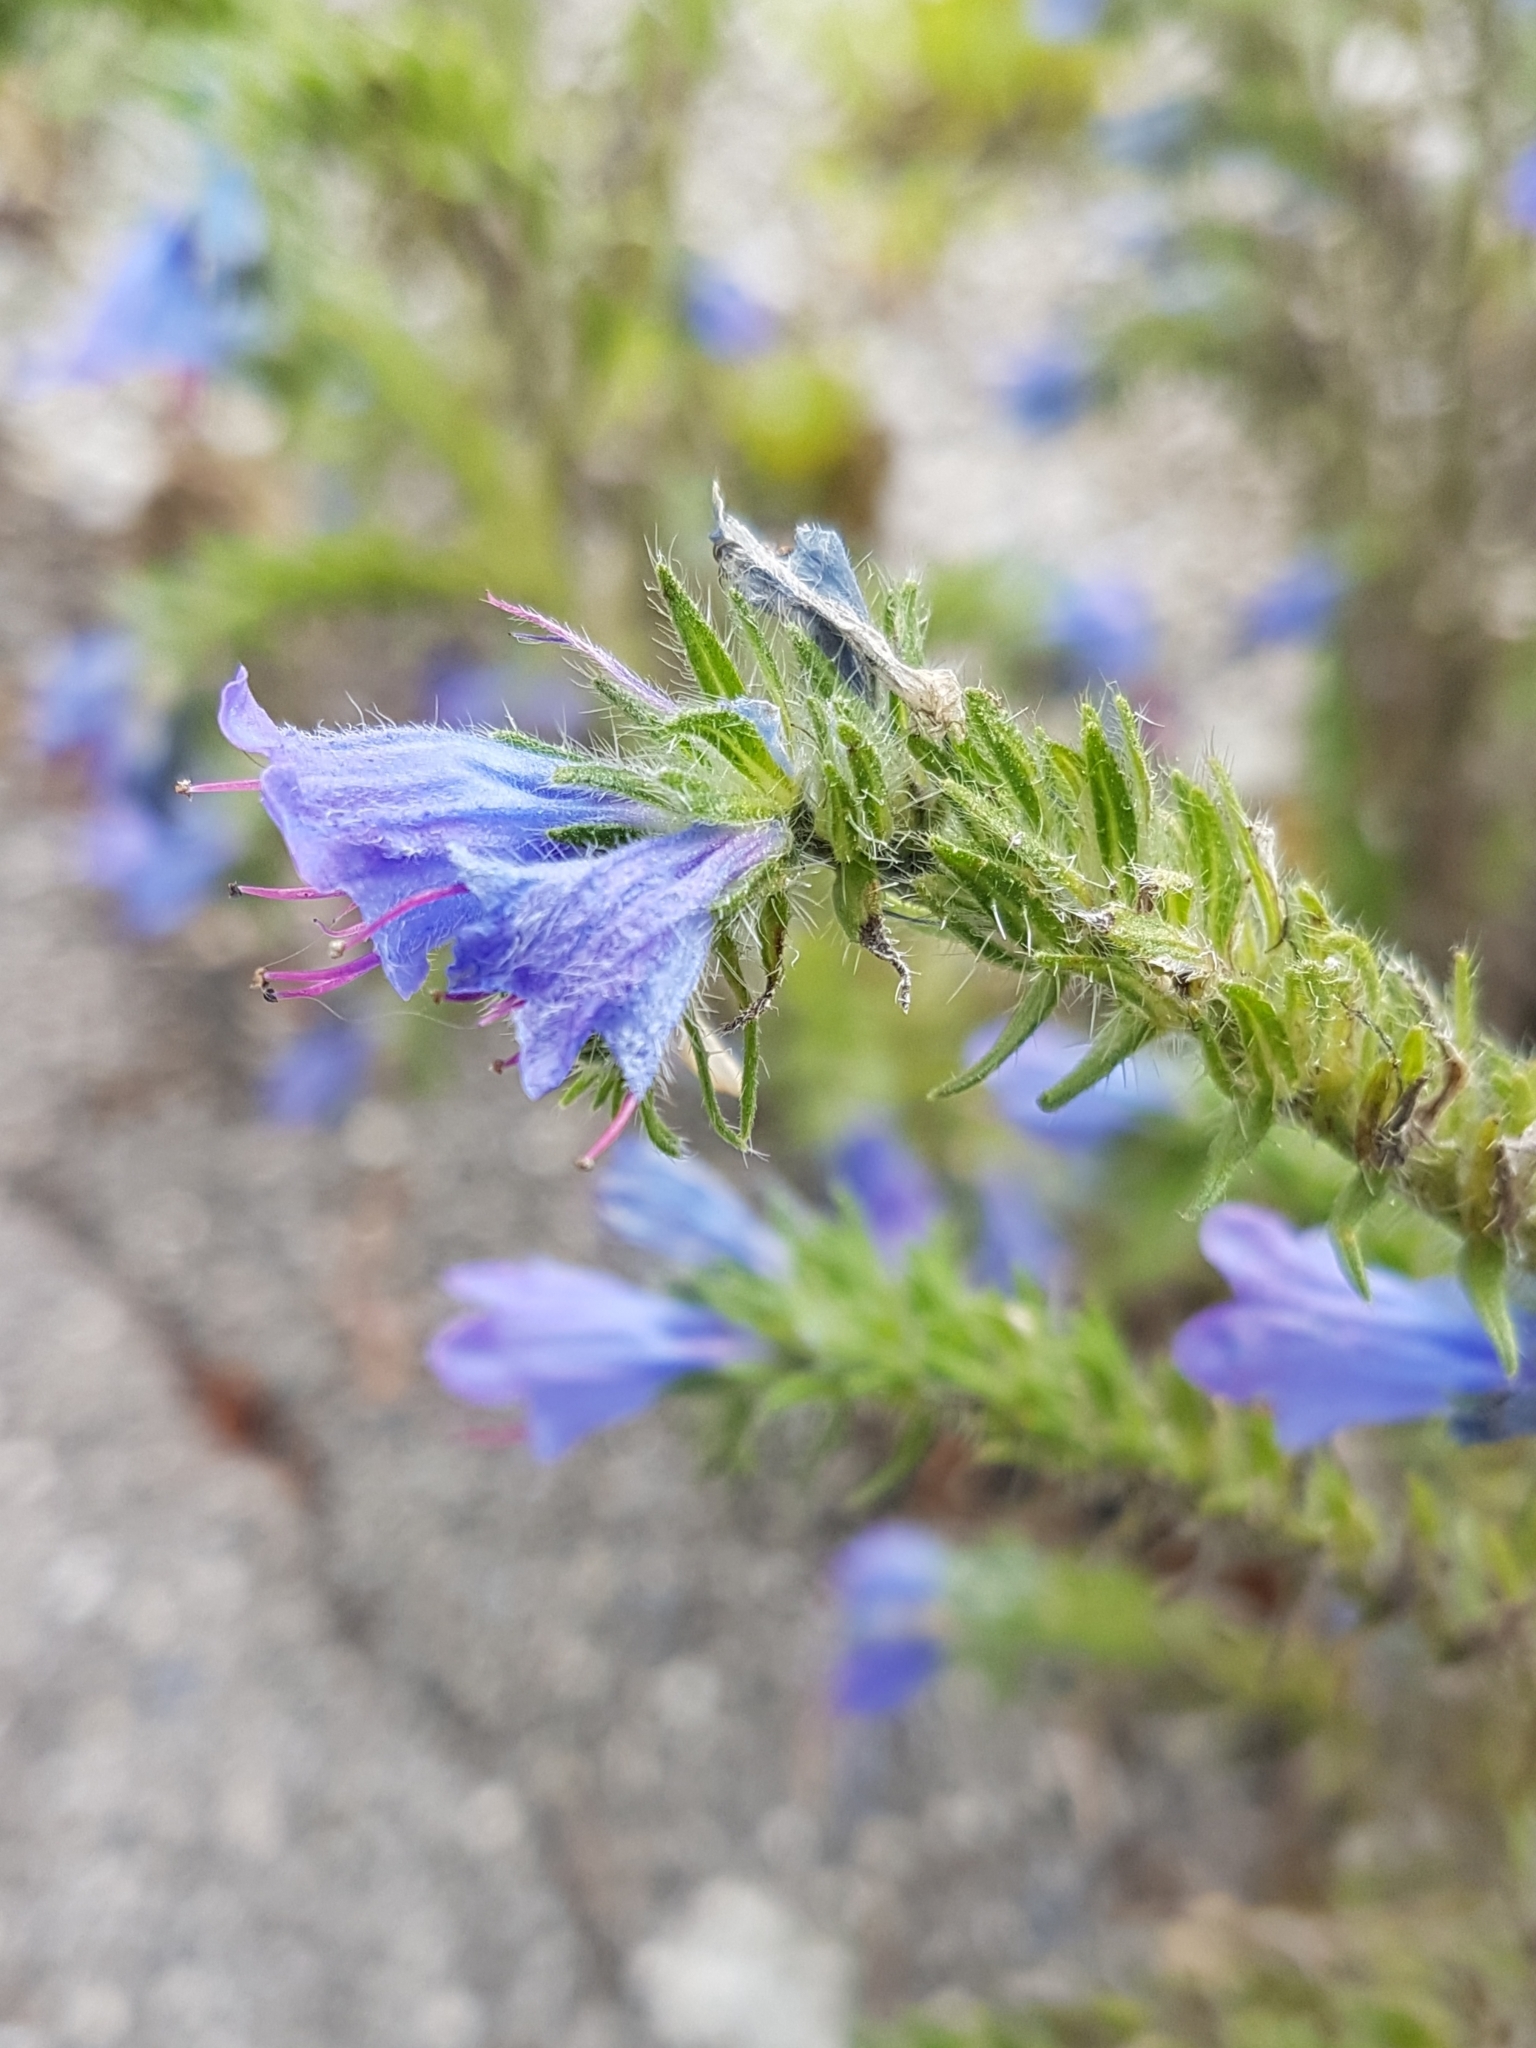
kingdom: Plantae
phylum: Tracheophyta
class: Magnoliopsida
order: Boraginales
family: Boraginaceae
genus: Echium
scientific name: Echium vulgare
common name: Common viper's bugloss
